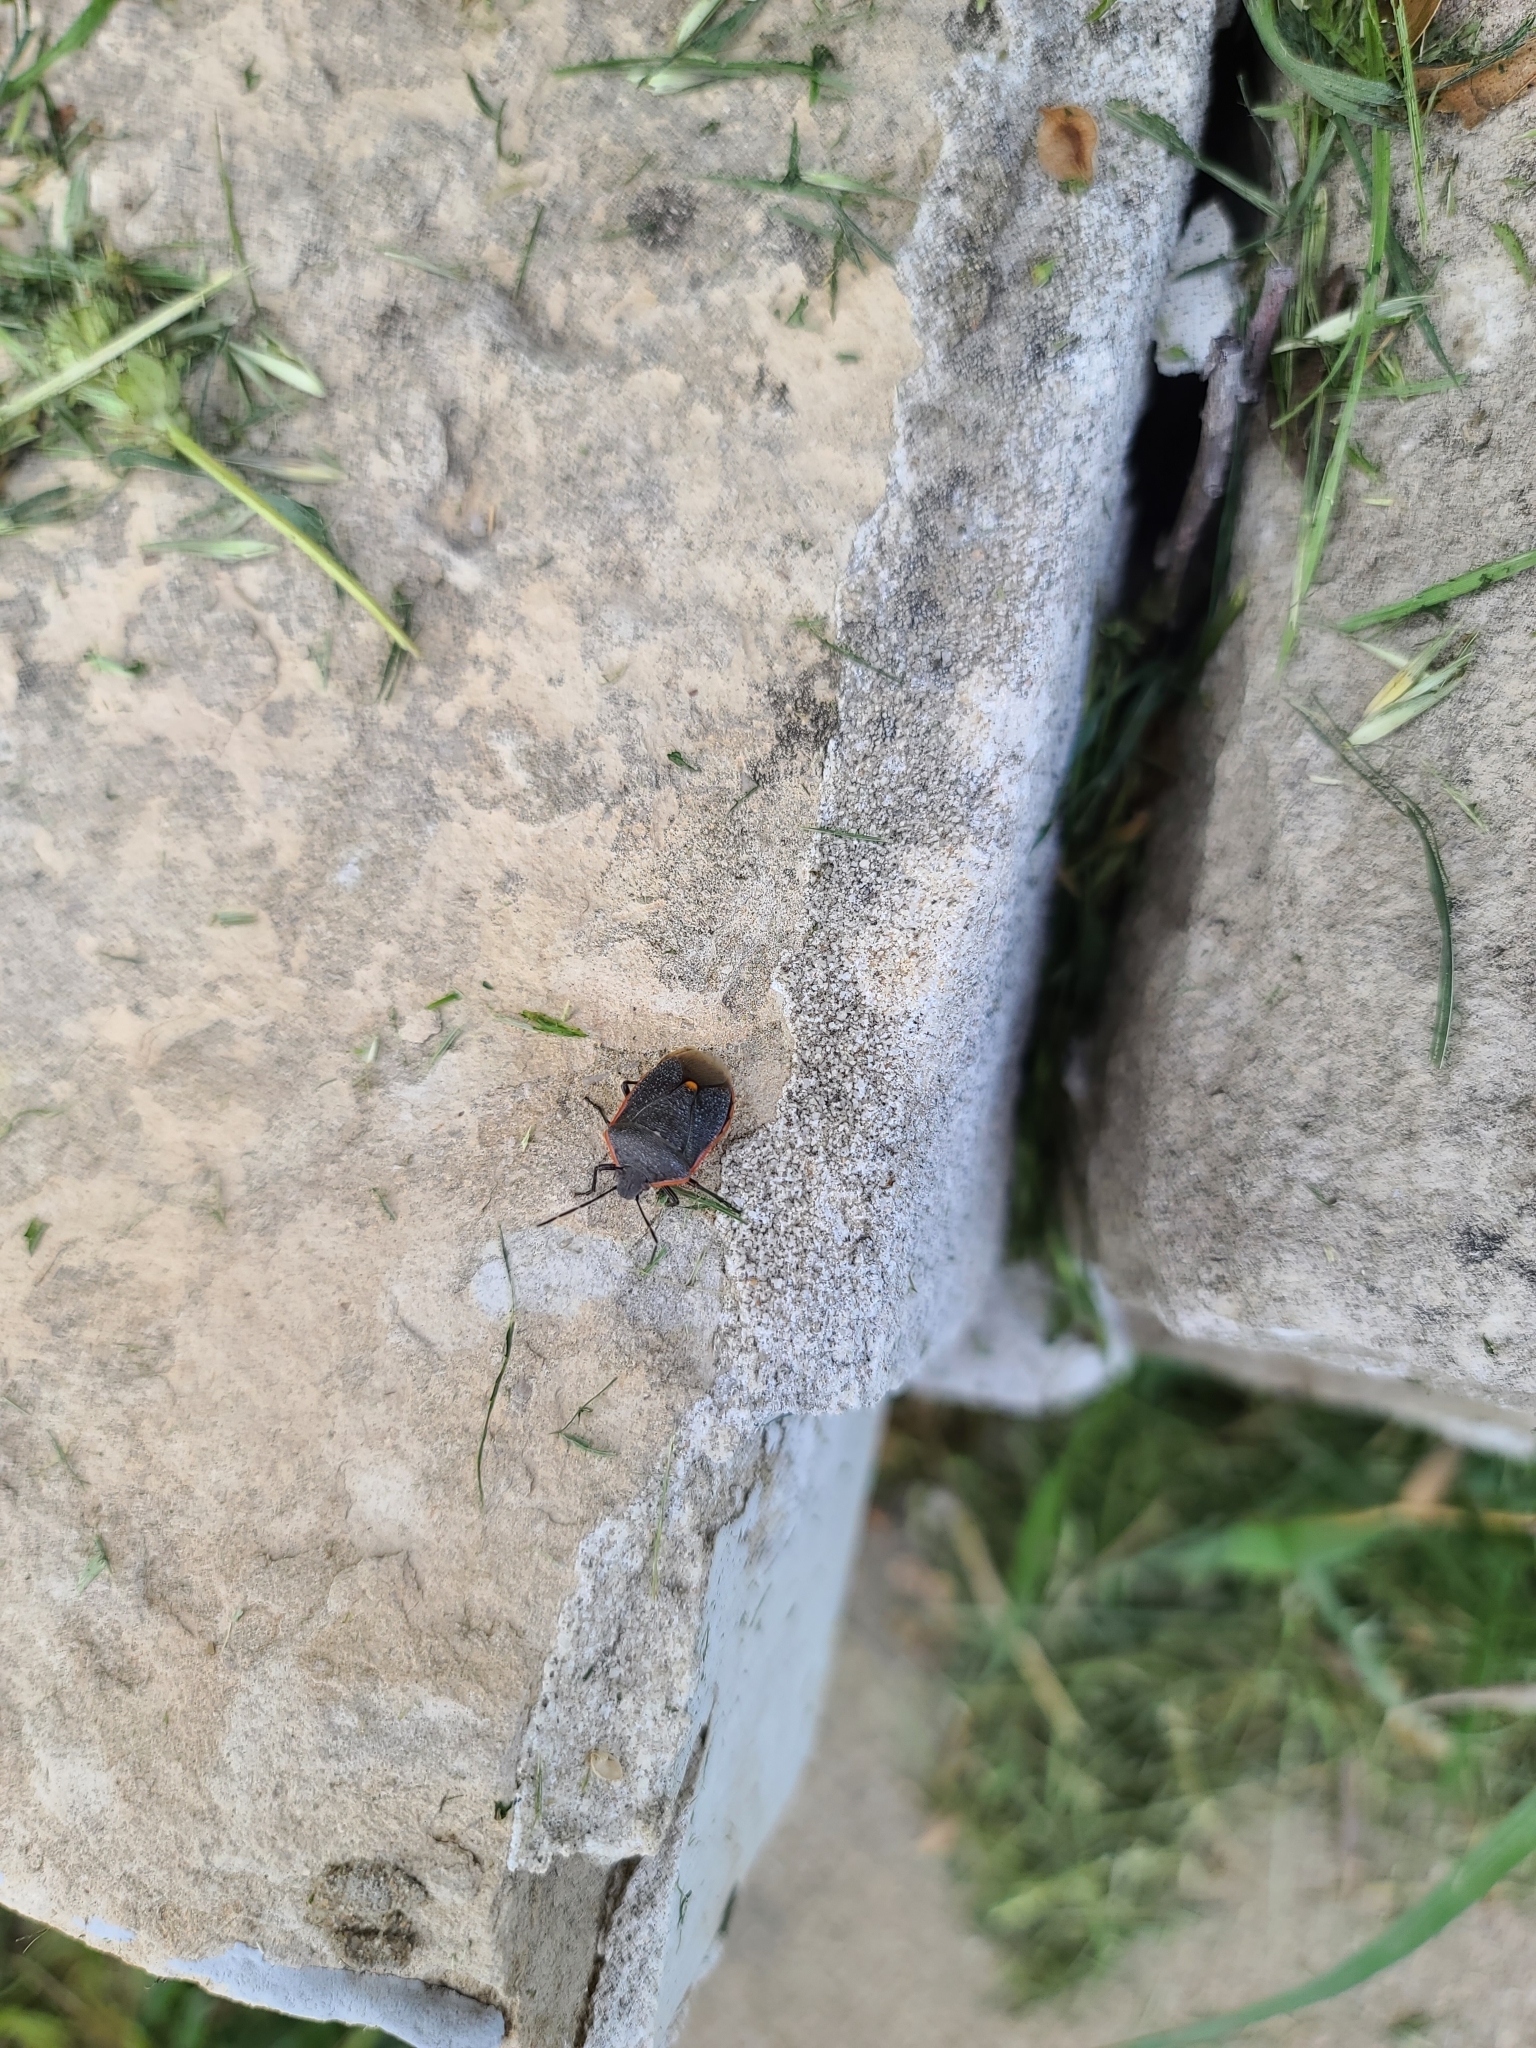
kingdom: Animalia
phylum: Arthropoda
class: Insecta
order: Hemiptera
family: Pentatomidae
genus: Chlorochroa
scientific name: Chlorochroa ligata
